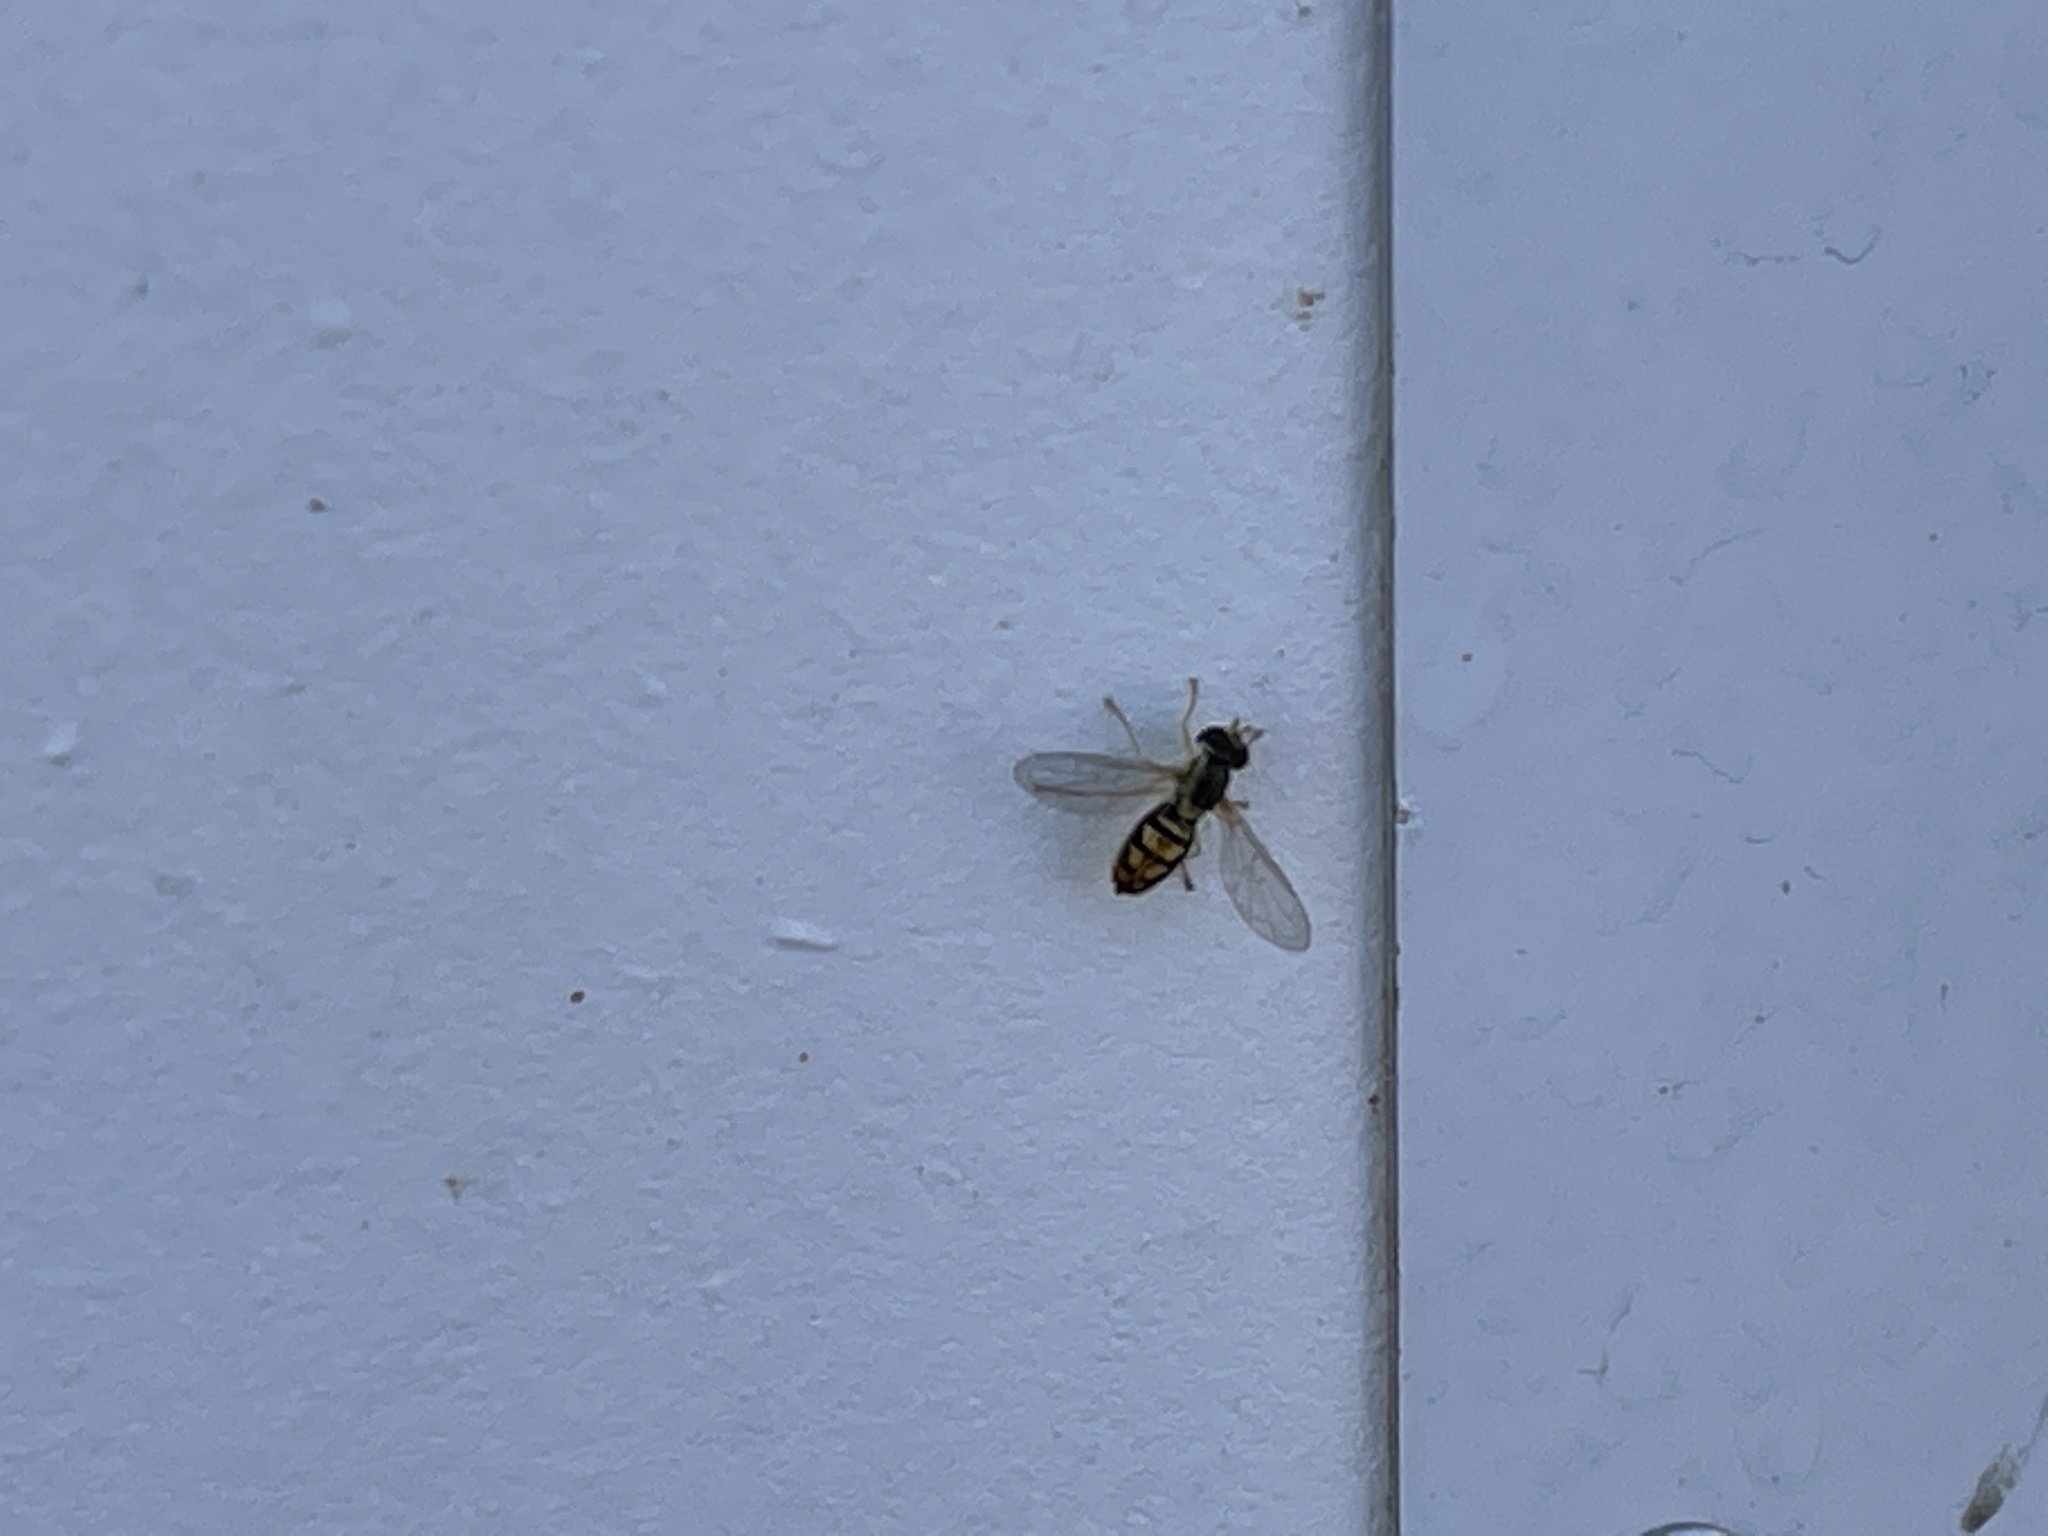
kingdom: Animalia
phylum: Arthropoda
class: Insecta
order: Diptera
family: Syrphidae
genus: Toxomerus
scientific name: Toxomerus marginatus
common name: Syrphid fly
